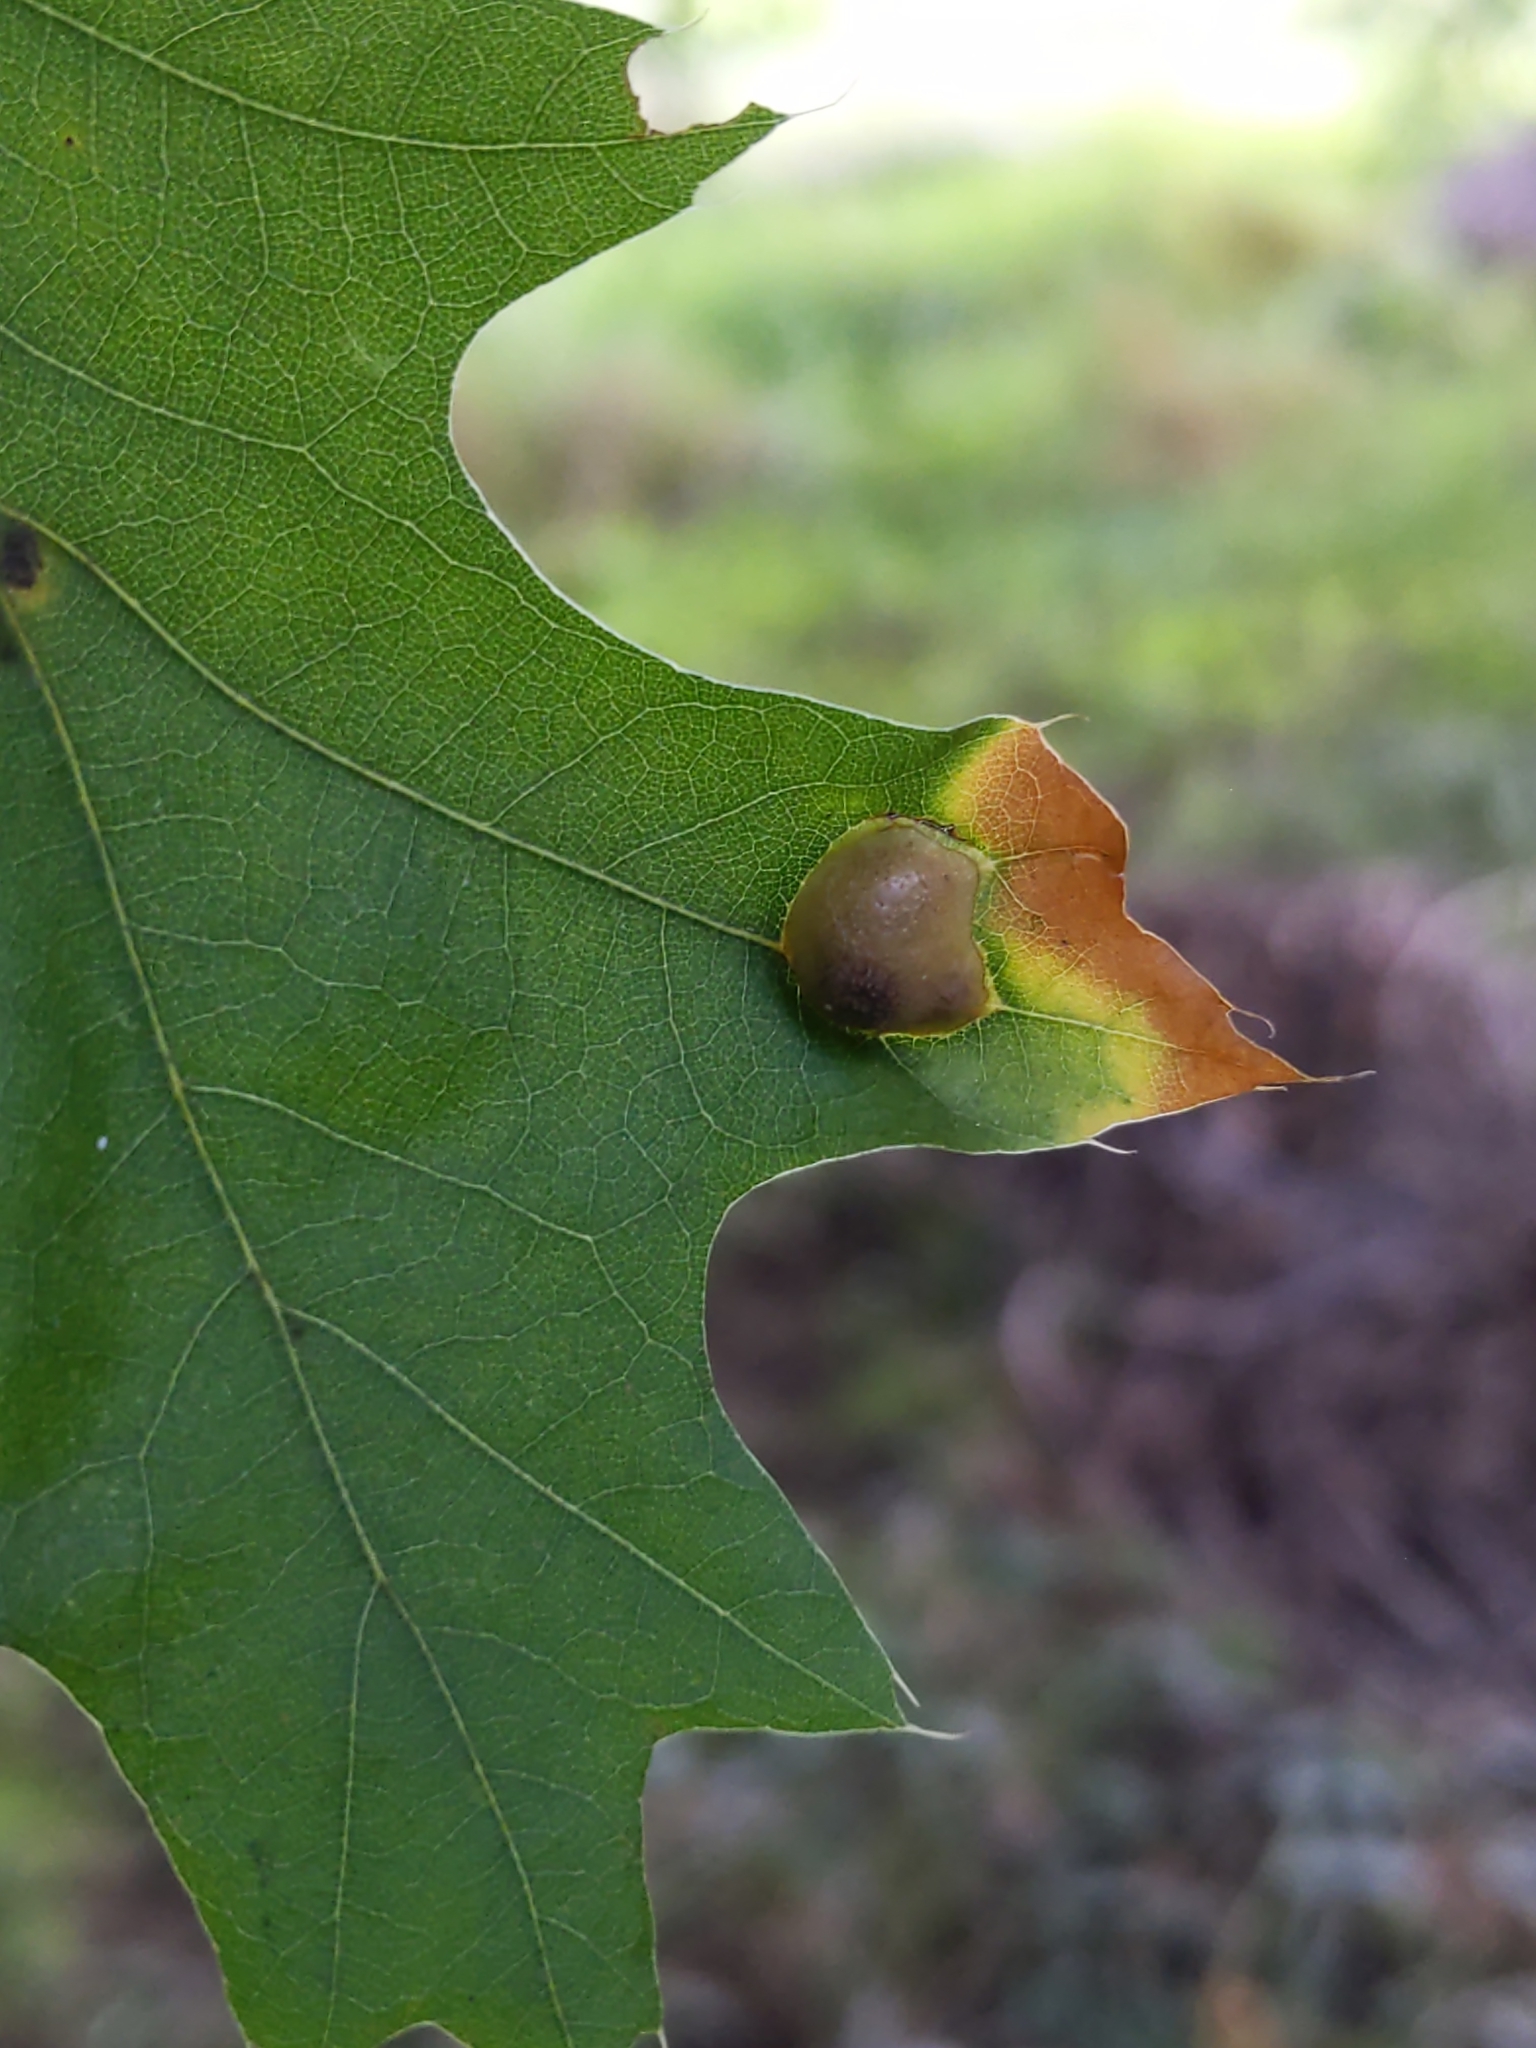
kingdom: Animalia
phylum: Arthropoda
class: Insecta
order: Diptera
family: Cecidomyiidae
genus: Polystepha
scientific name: Polystepha pilulae
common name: Oak leaf gall midge
